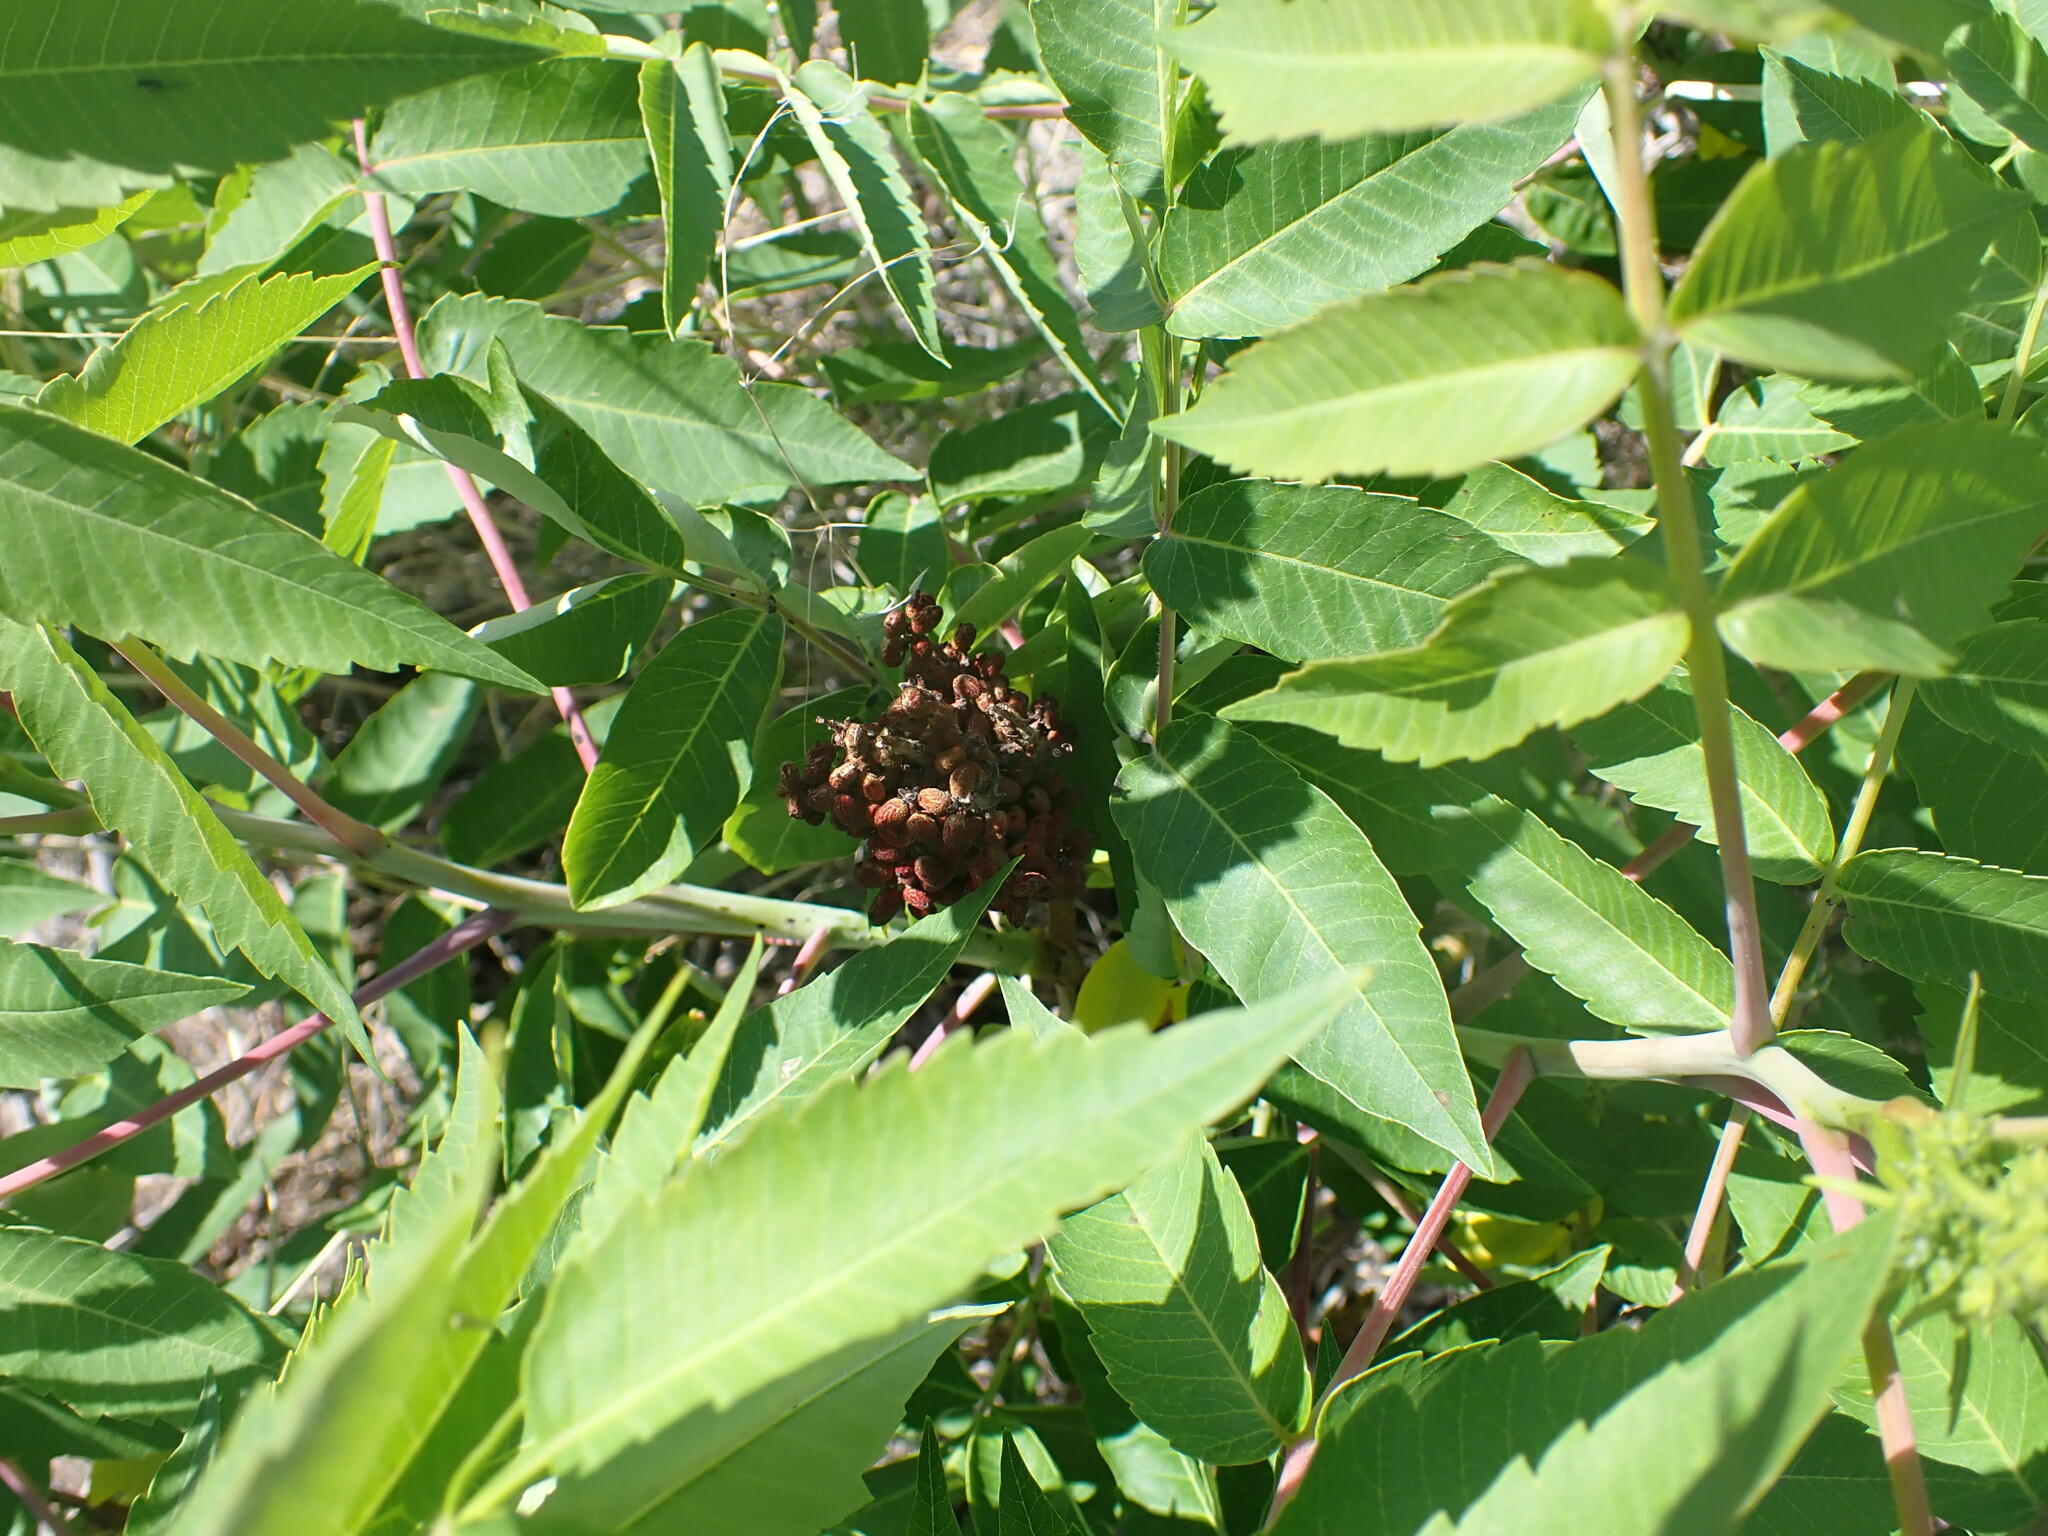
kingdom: Plantae
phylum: Tracheophyta
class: Magnoliopsida
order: Sapindales
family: Anacardiaceae
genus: Rhus
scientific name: Rhus glabra
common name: Scarlet sumac
